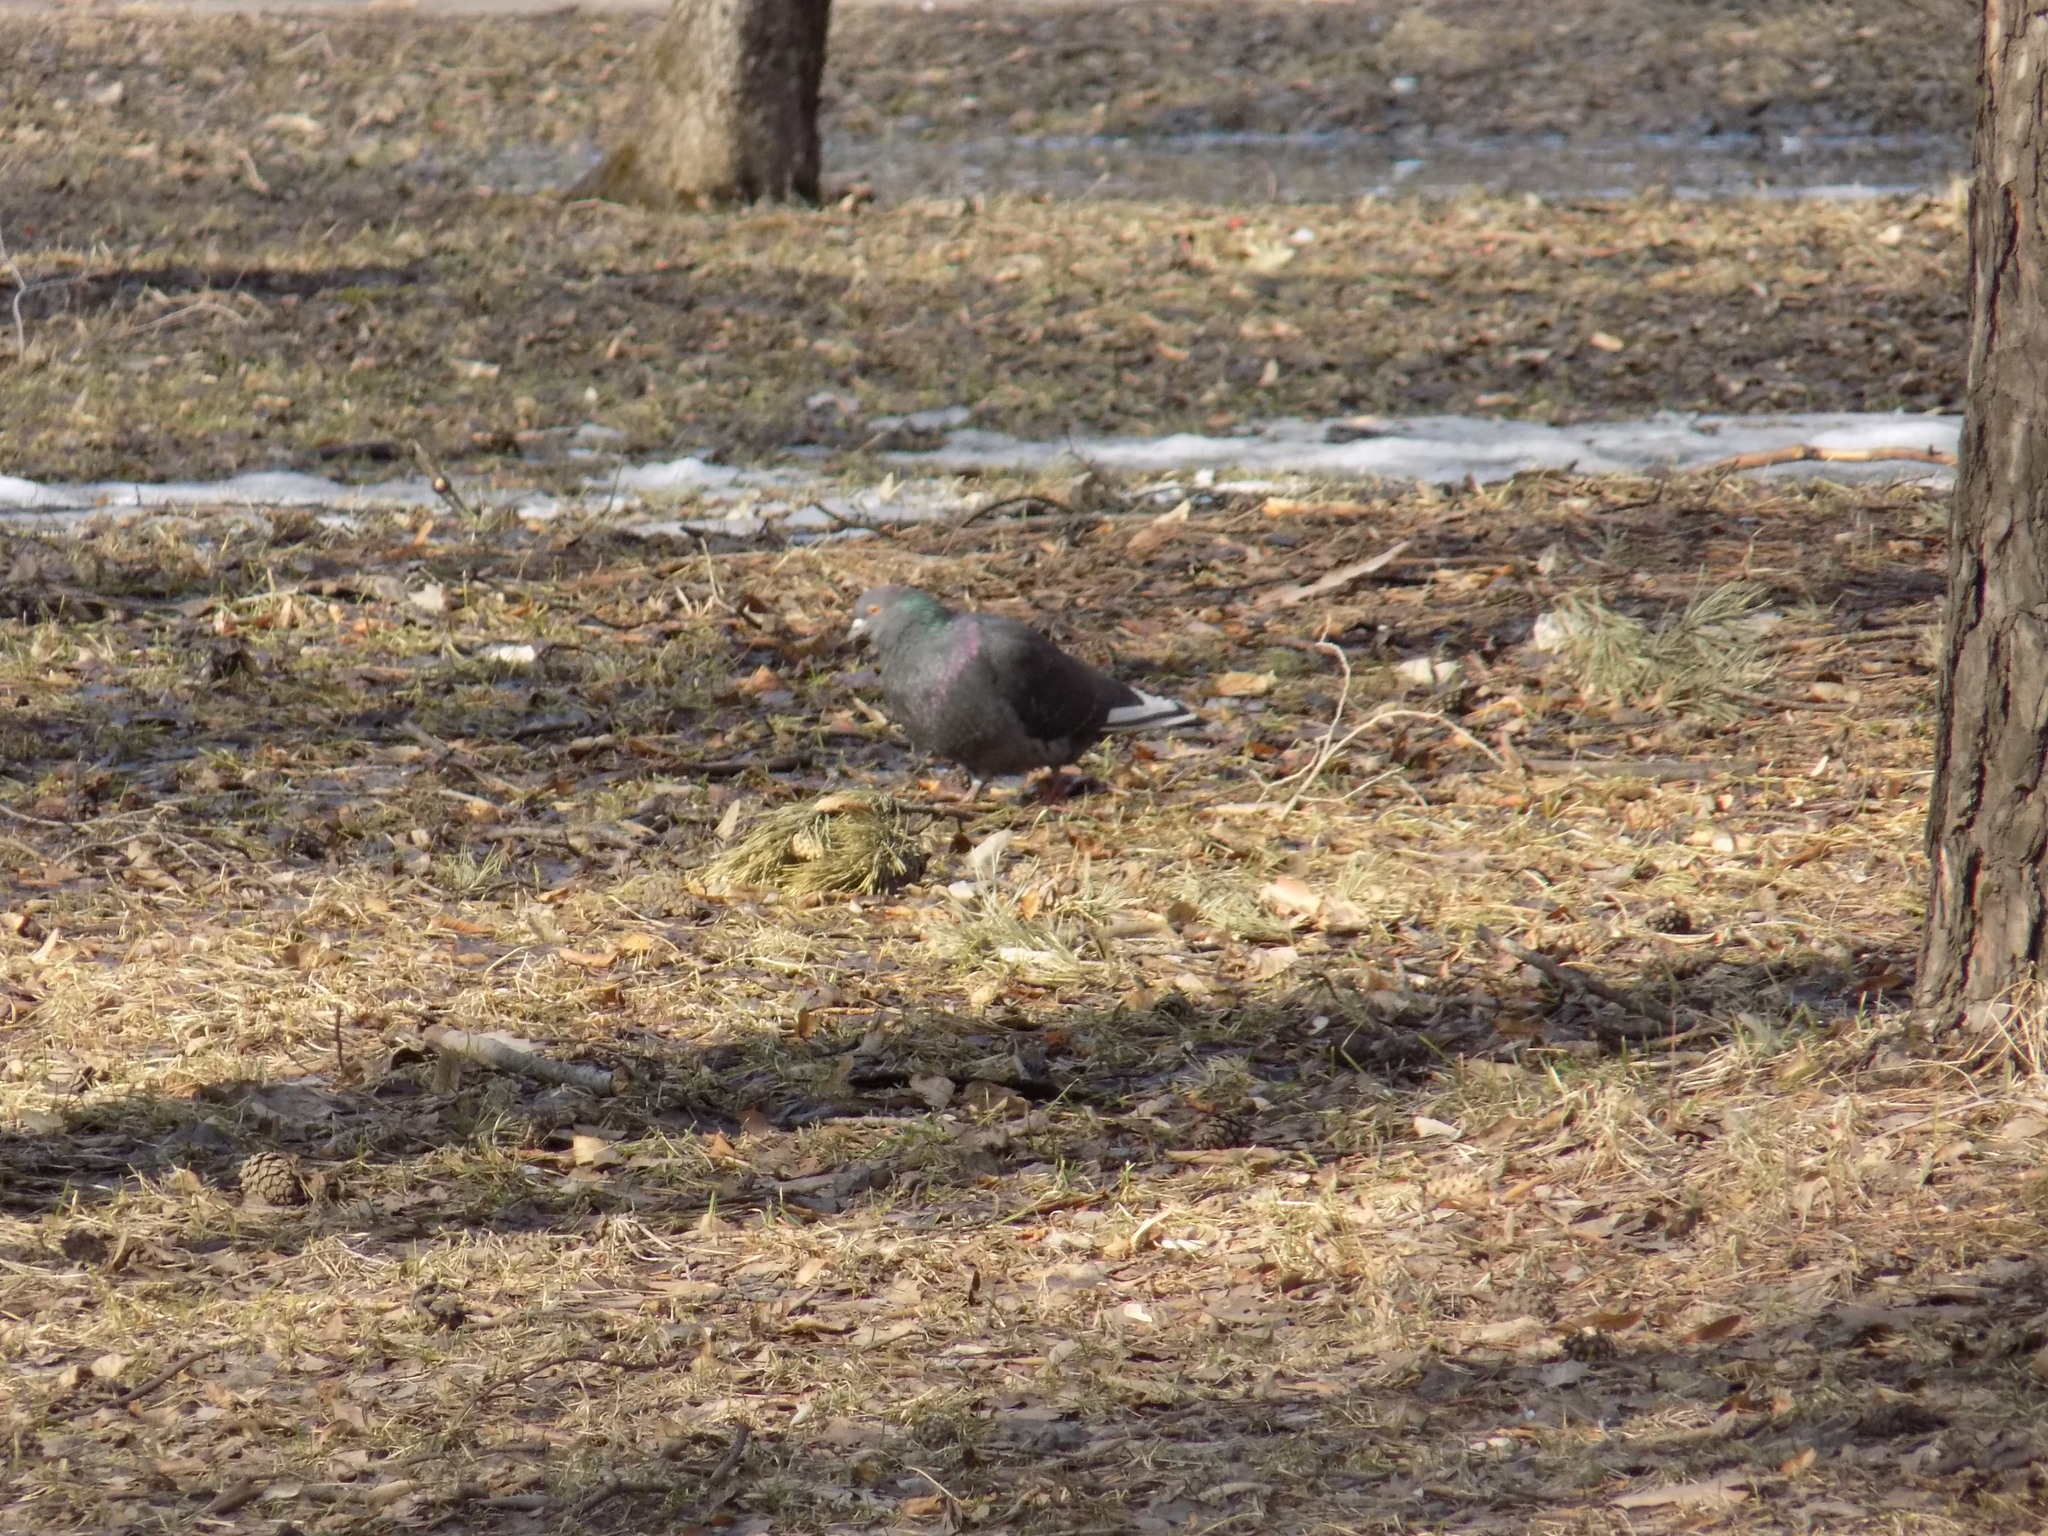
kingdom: Animalia
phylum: Chordata
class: Aves
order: Columbiformes
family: Columbidae
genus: Columba
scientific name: Columba livia
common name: Rock pigeon
